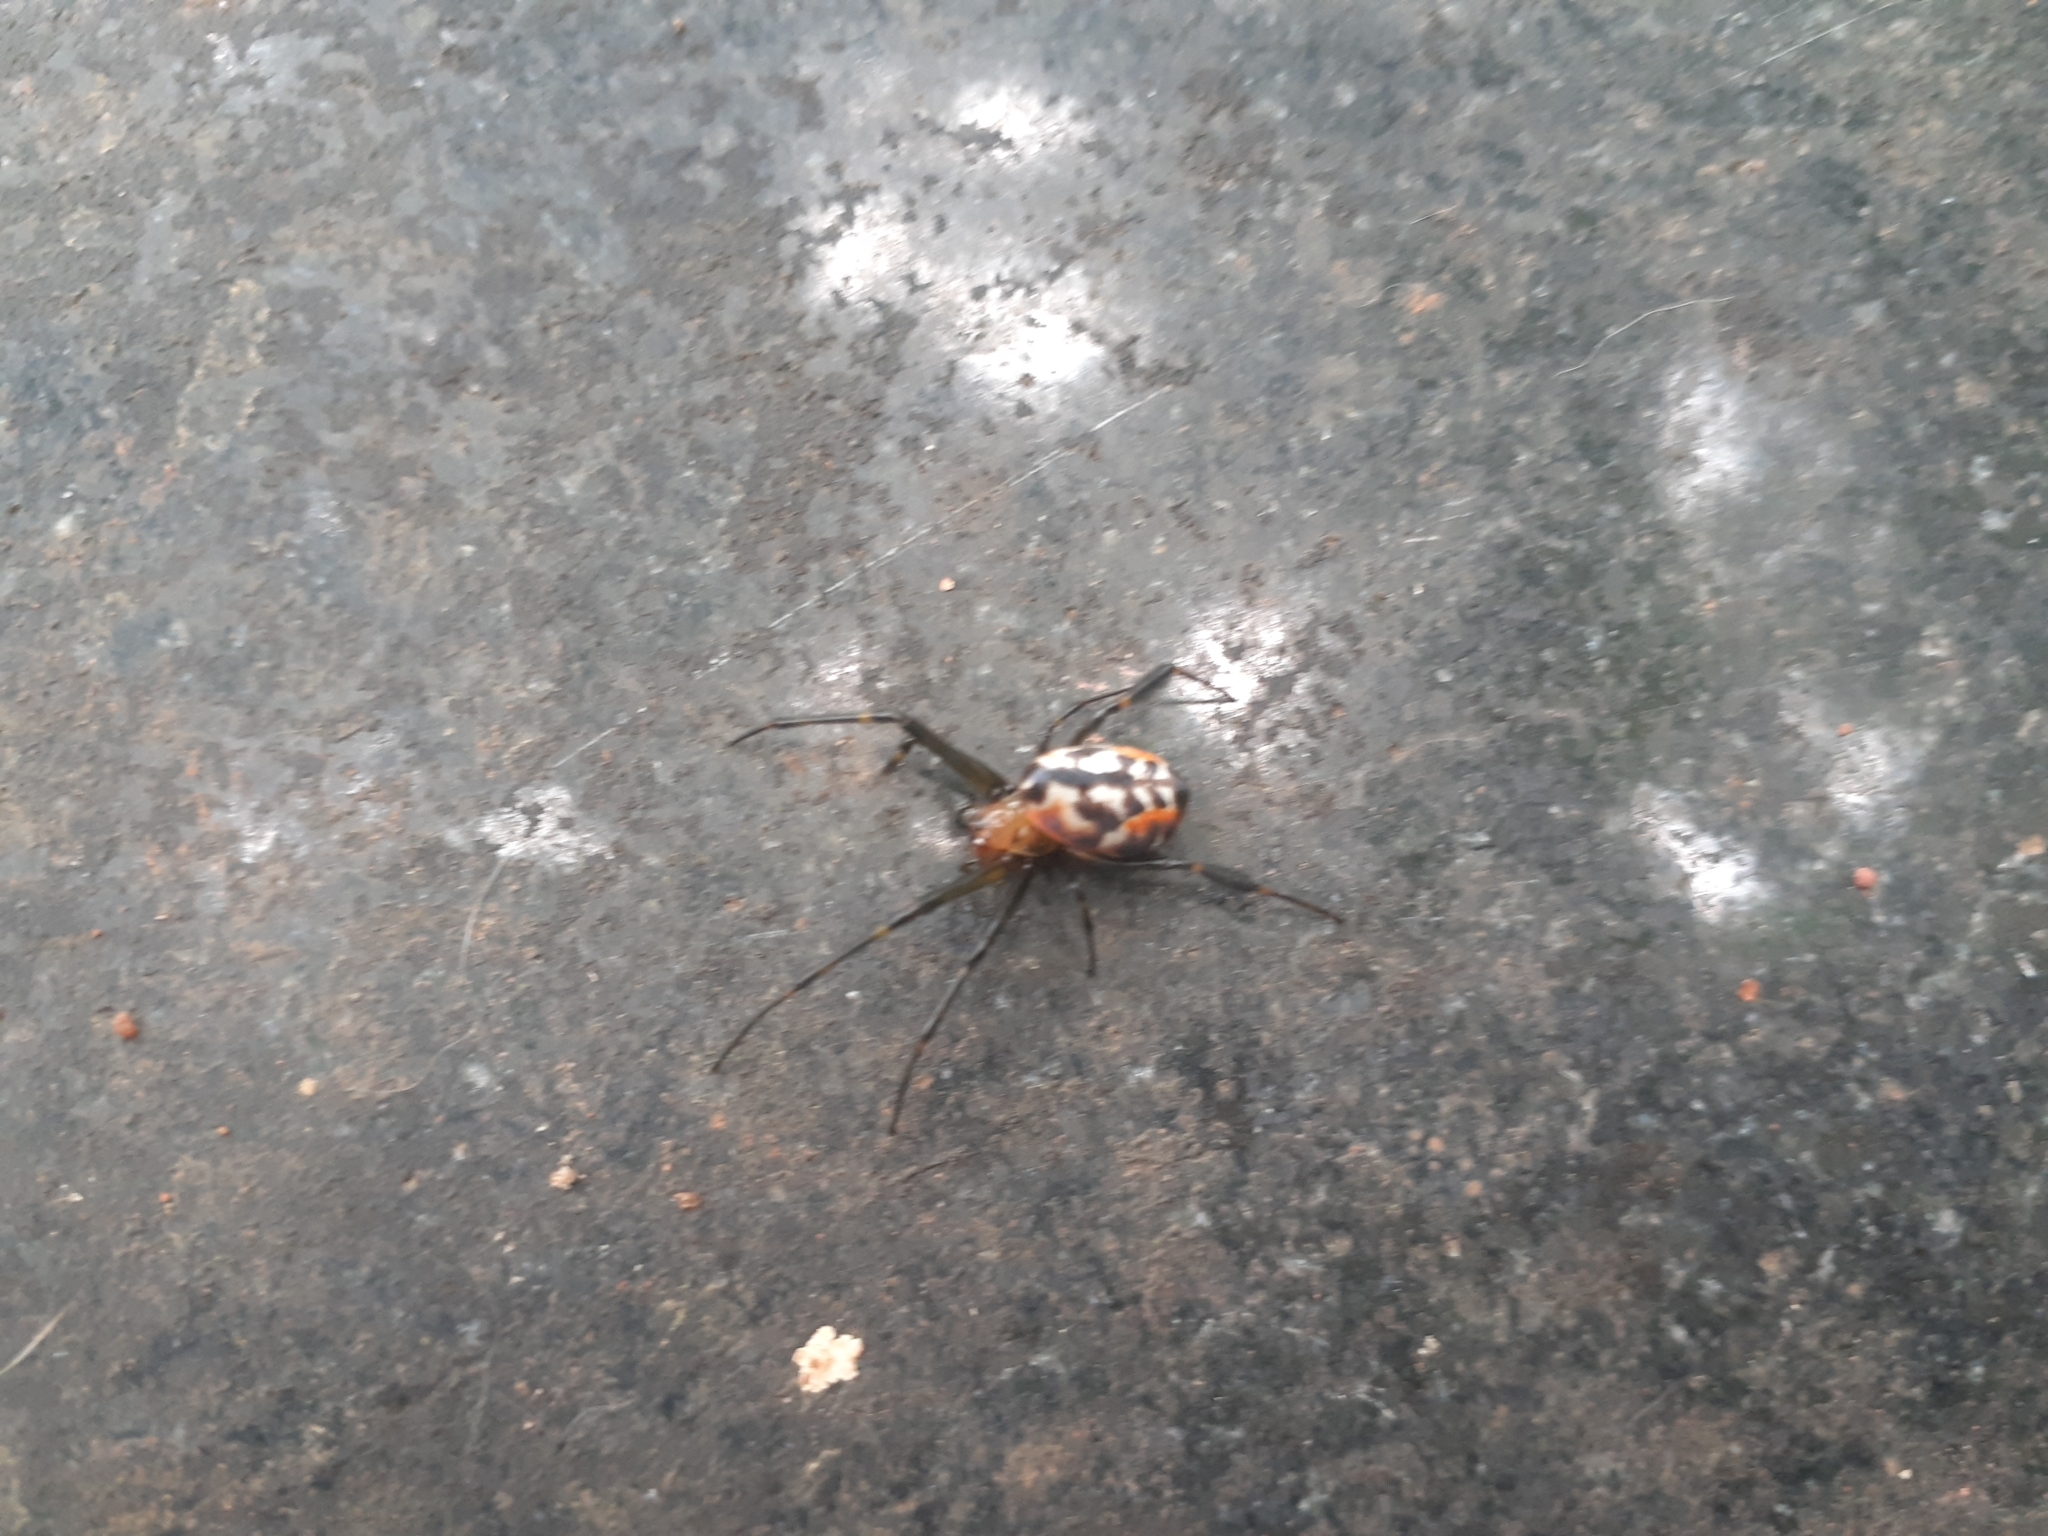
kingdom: Animalia
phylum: Arthropoda
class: Arachnida
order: Araneae
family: Tetragnathidae
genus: Leucauge
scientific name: Leucauge fastigata
